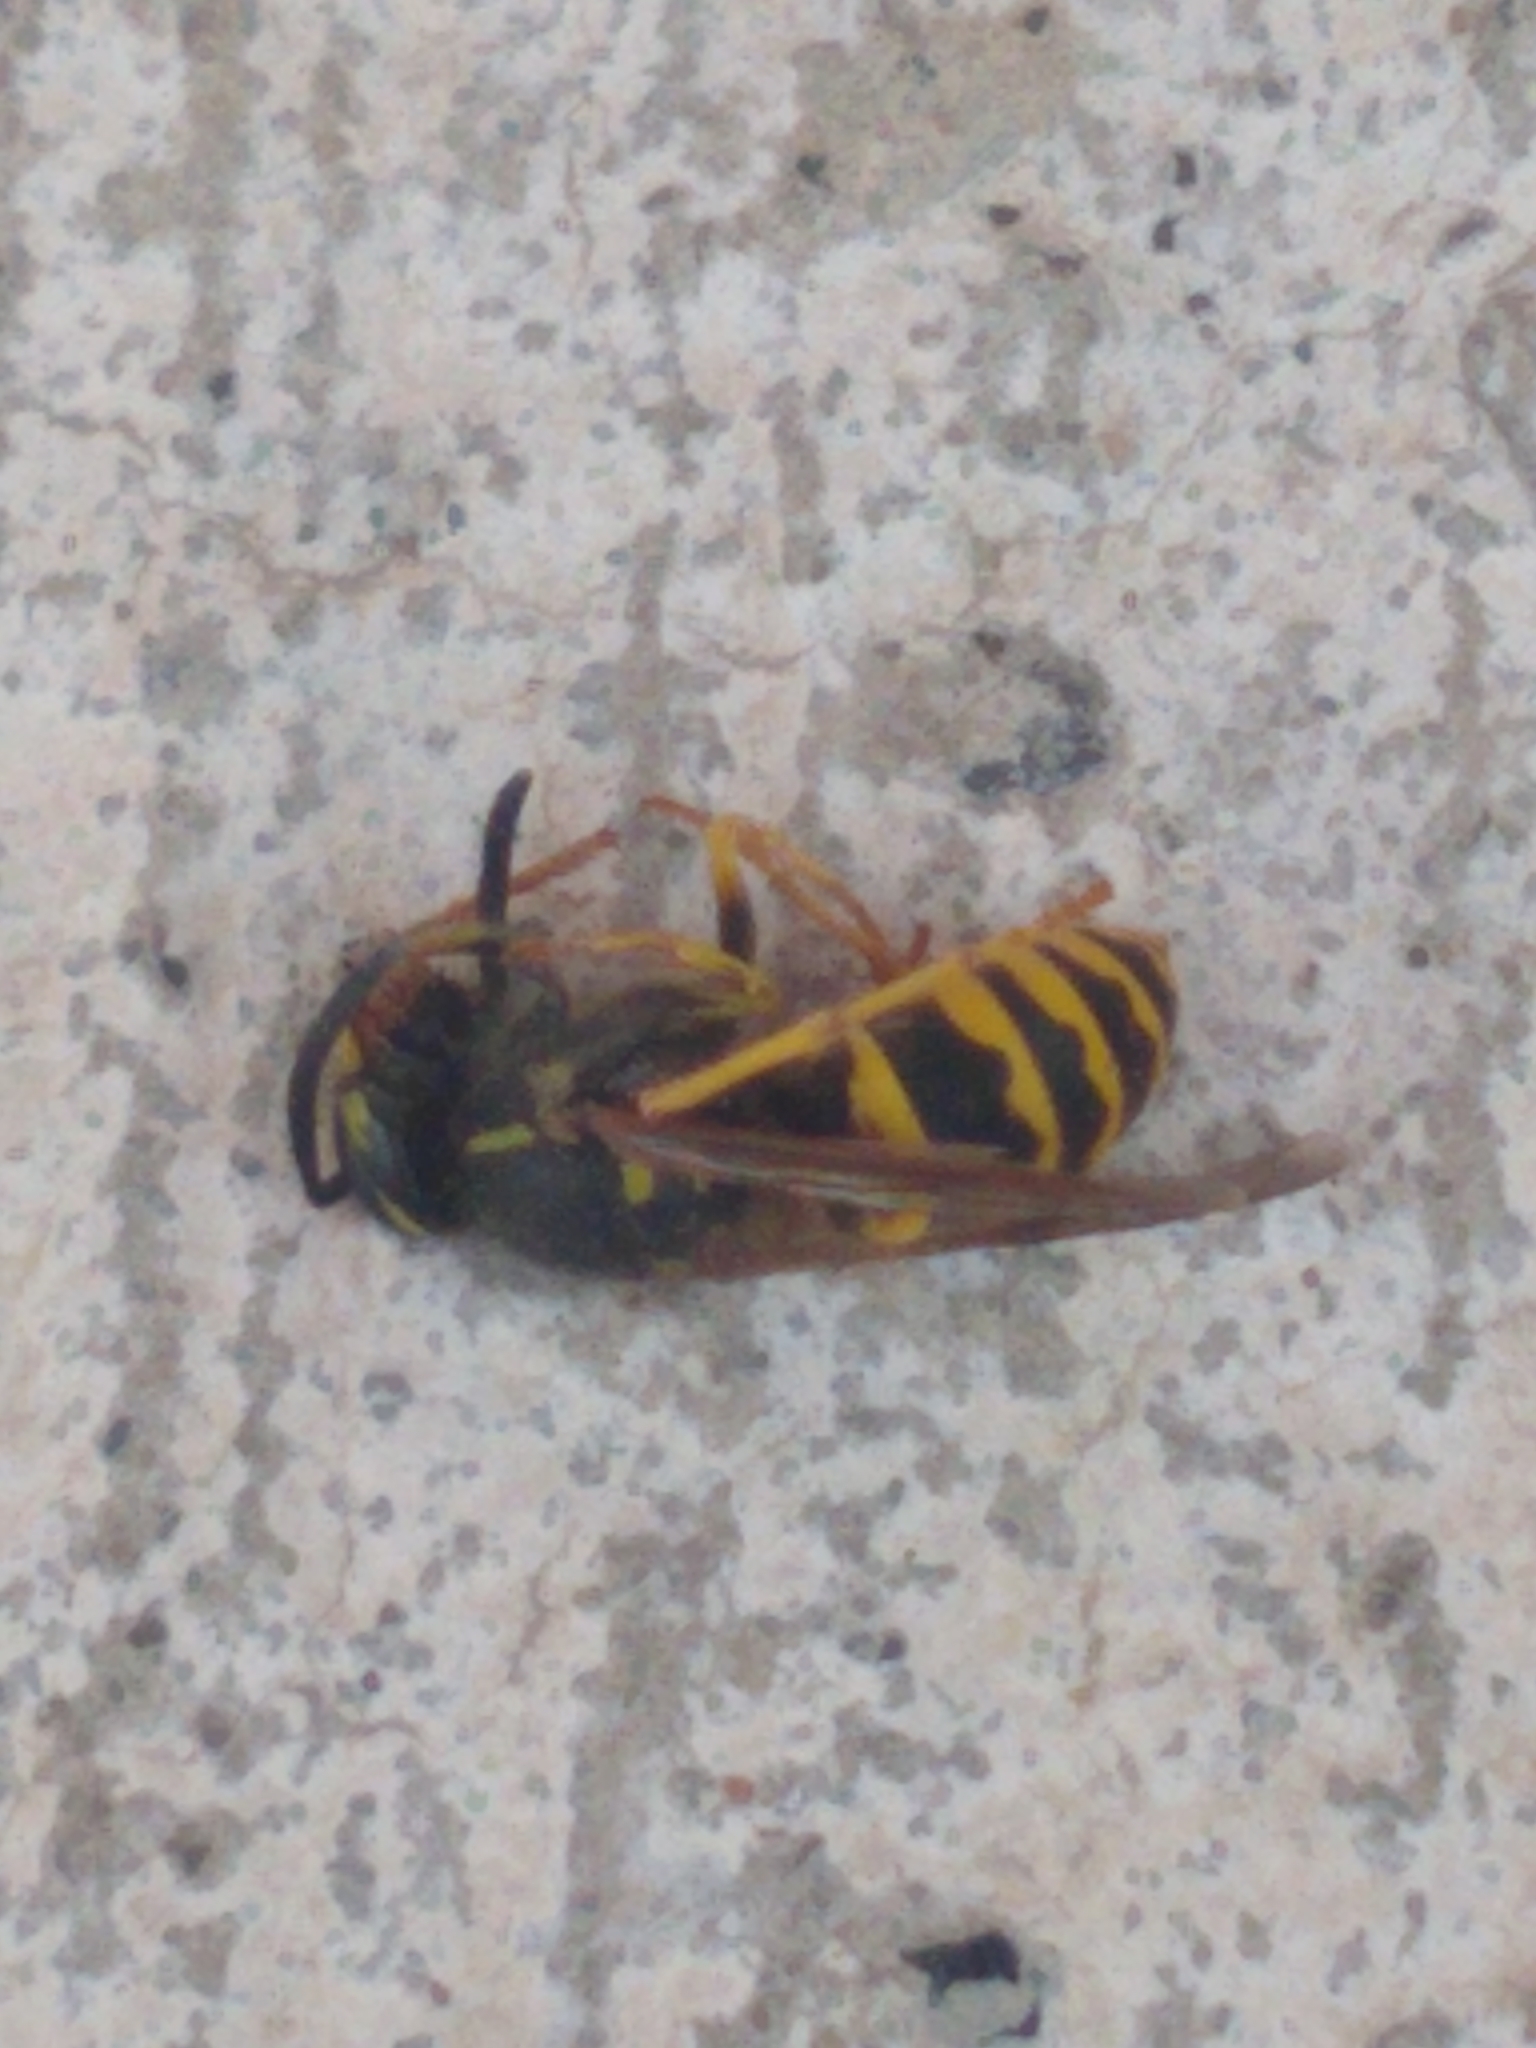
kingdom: Animalia
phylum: Arthropoda
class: Insecta
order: Hymenoptera
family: Vespidae
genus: Vespula
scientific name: Vespula alascensis
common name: Alaska yellowjacket
